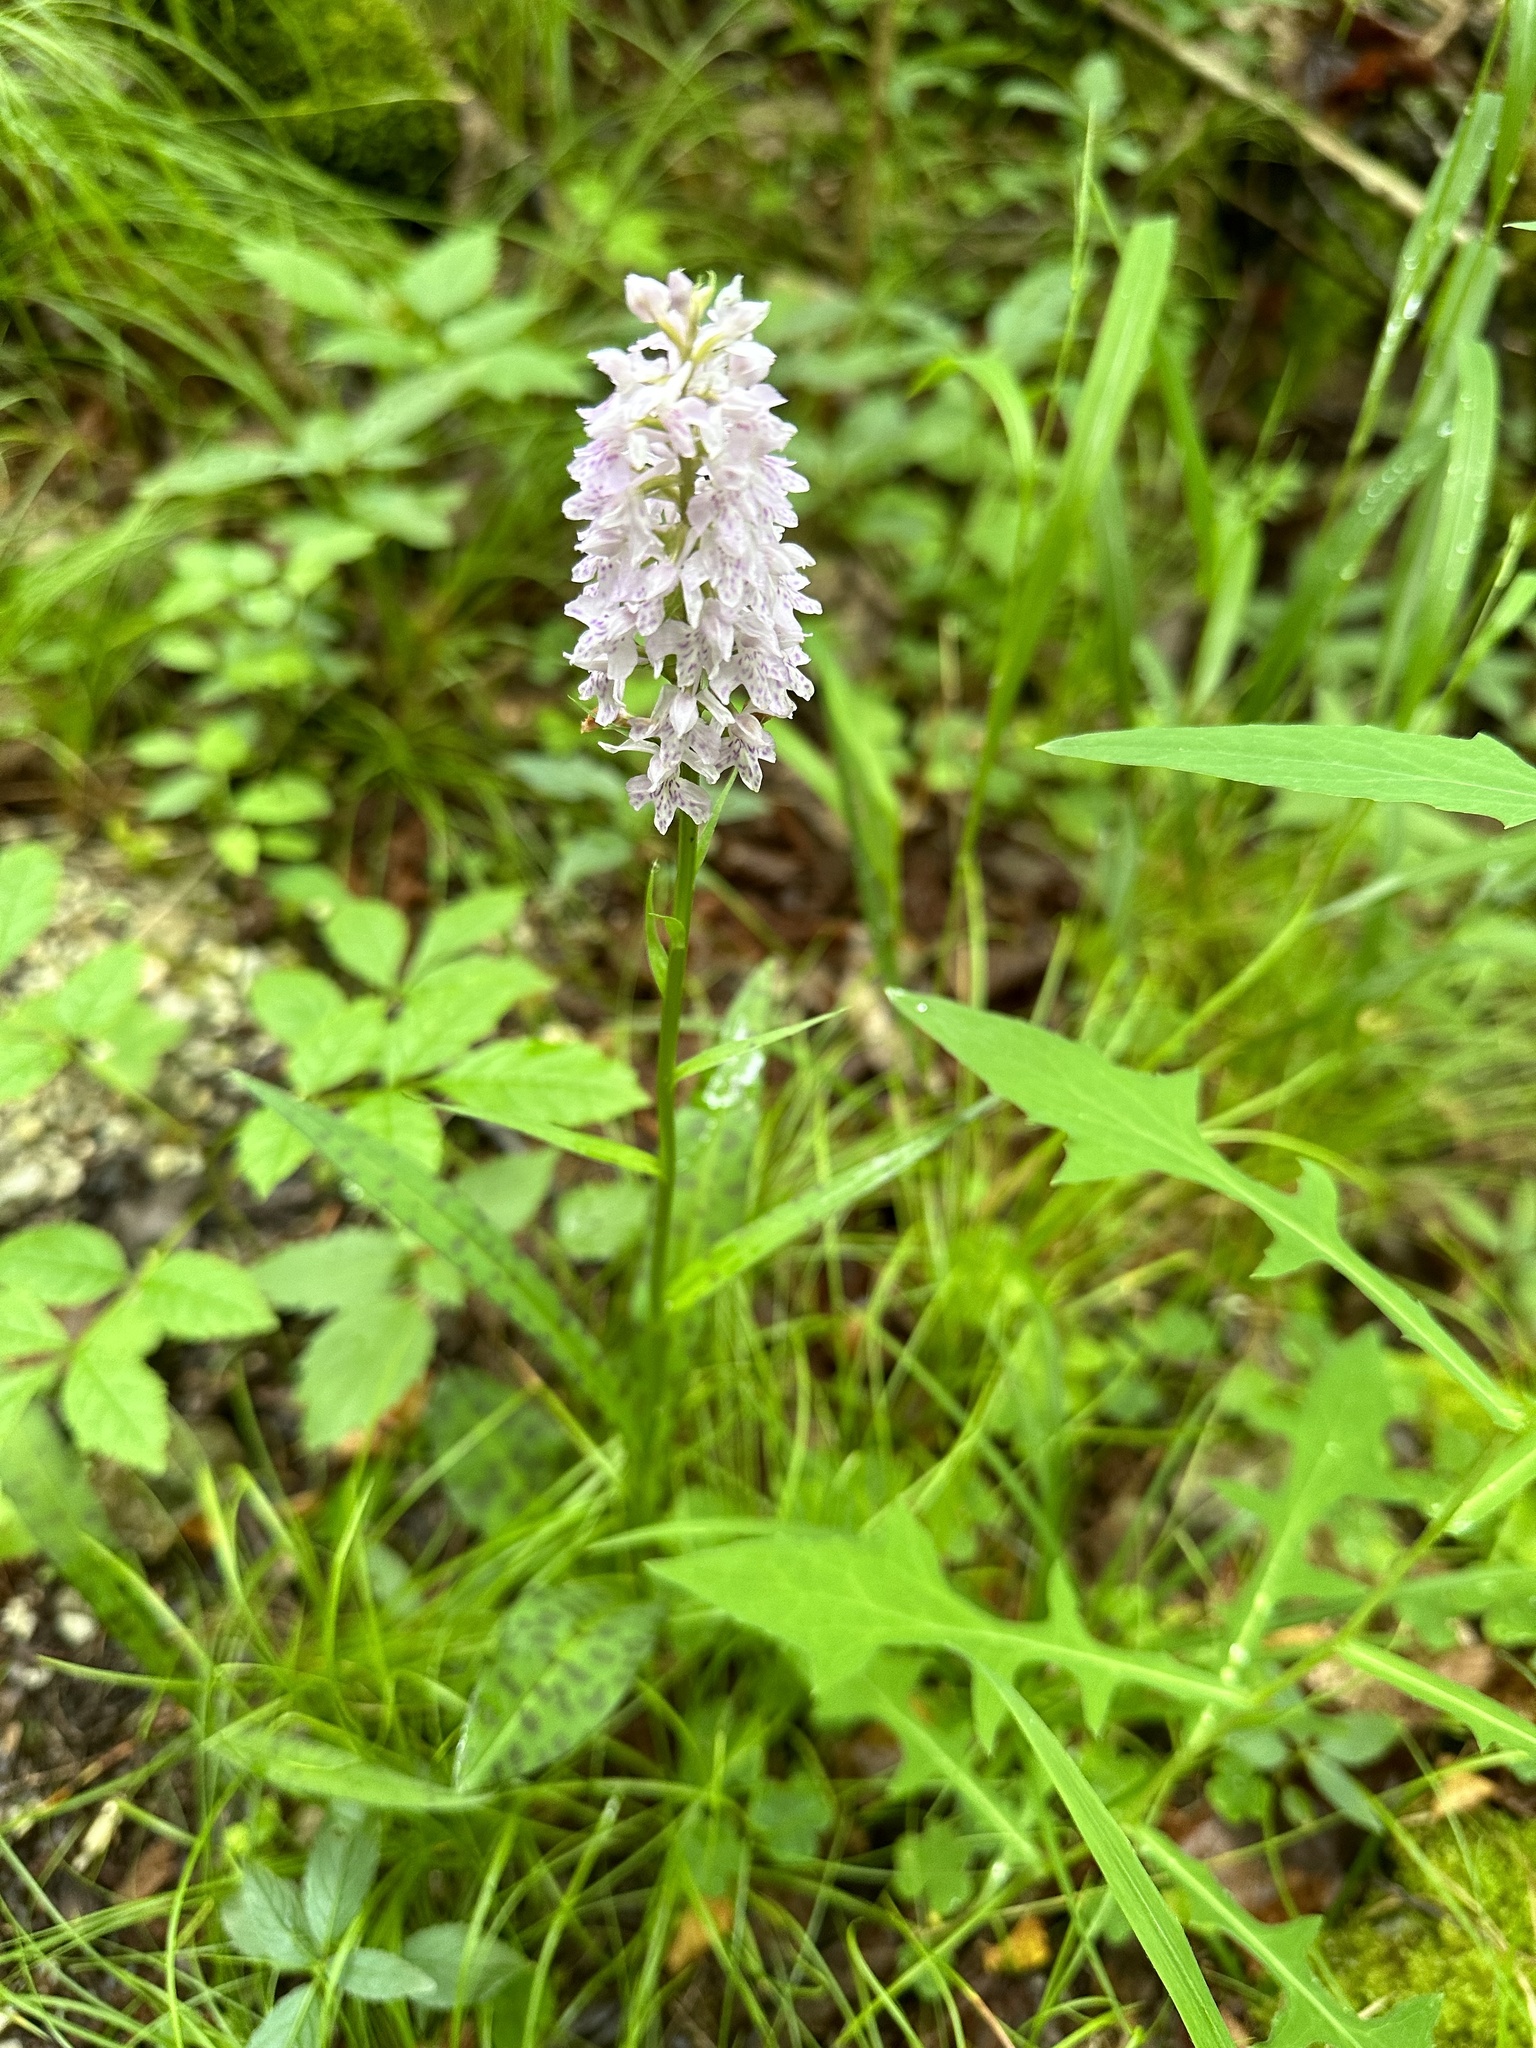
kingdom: Plantae
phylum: Tracheophyta
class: Liliopsida
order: Asparagales
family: Orchidaceae
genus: Dactylorhiza
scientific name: Dactylorhiza maculata
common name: Heath spotted-orchid
